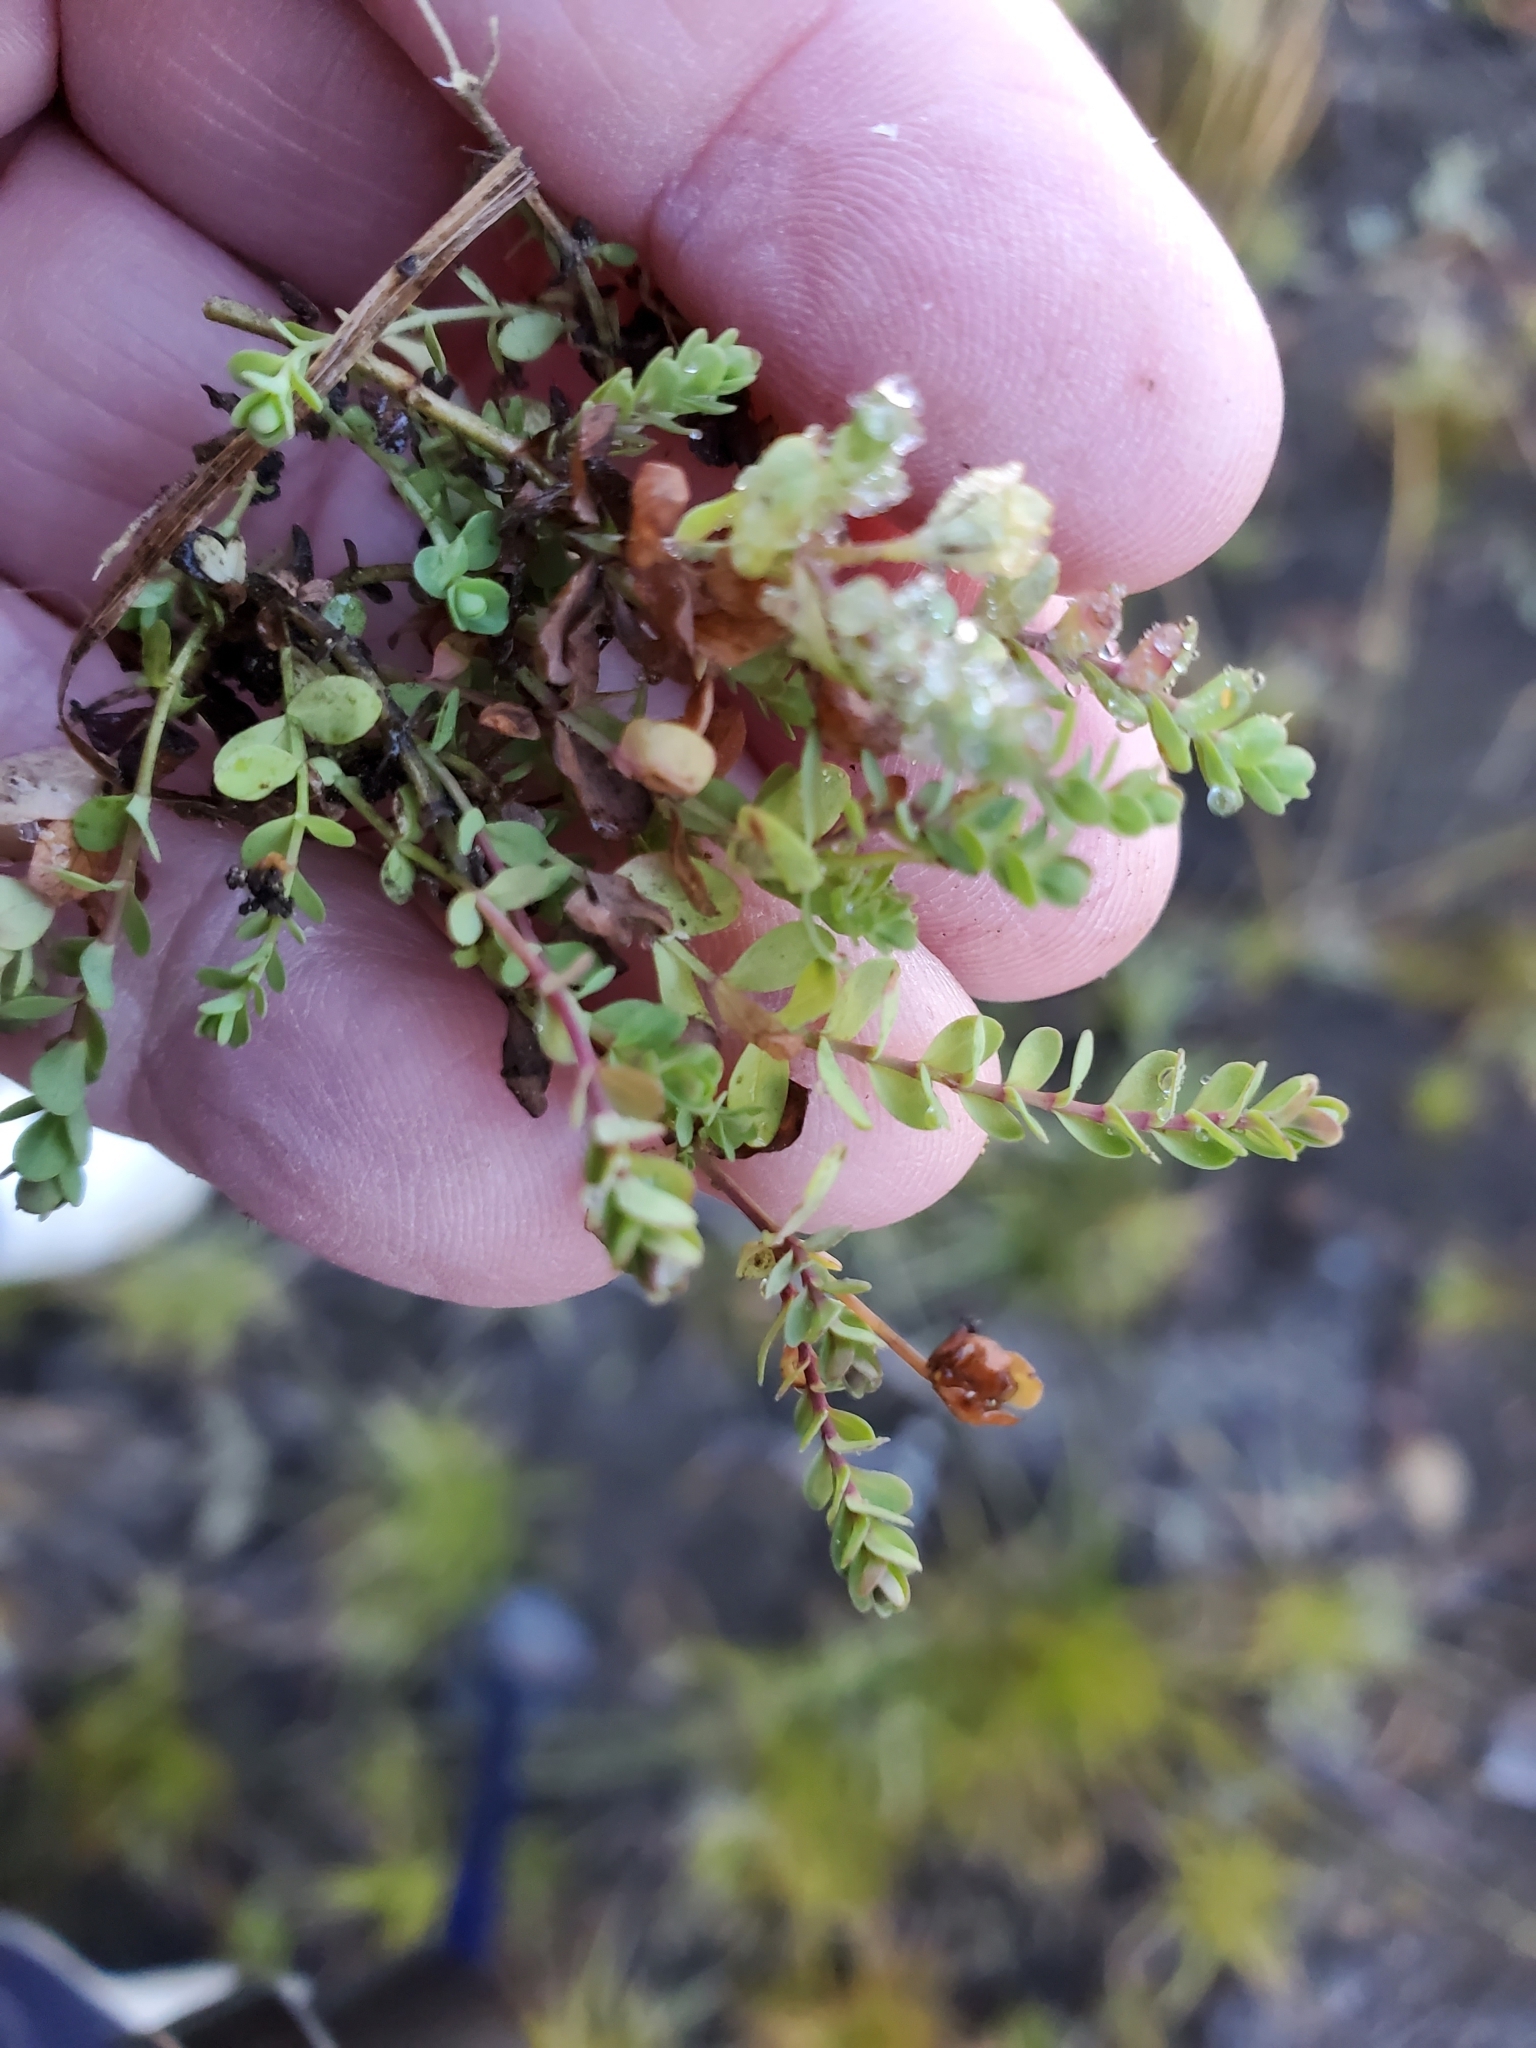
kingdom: Plantae
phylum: Tracheophyta
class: Magnoliopsida
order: Malpighiales
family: Hypericaceae
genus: Hypericum
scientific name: Hypericum anagalloides
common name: Bog st. john's-wort
